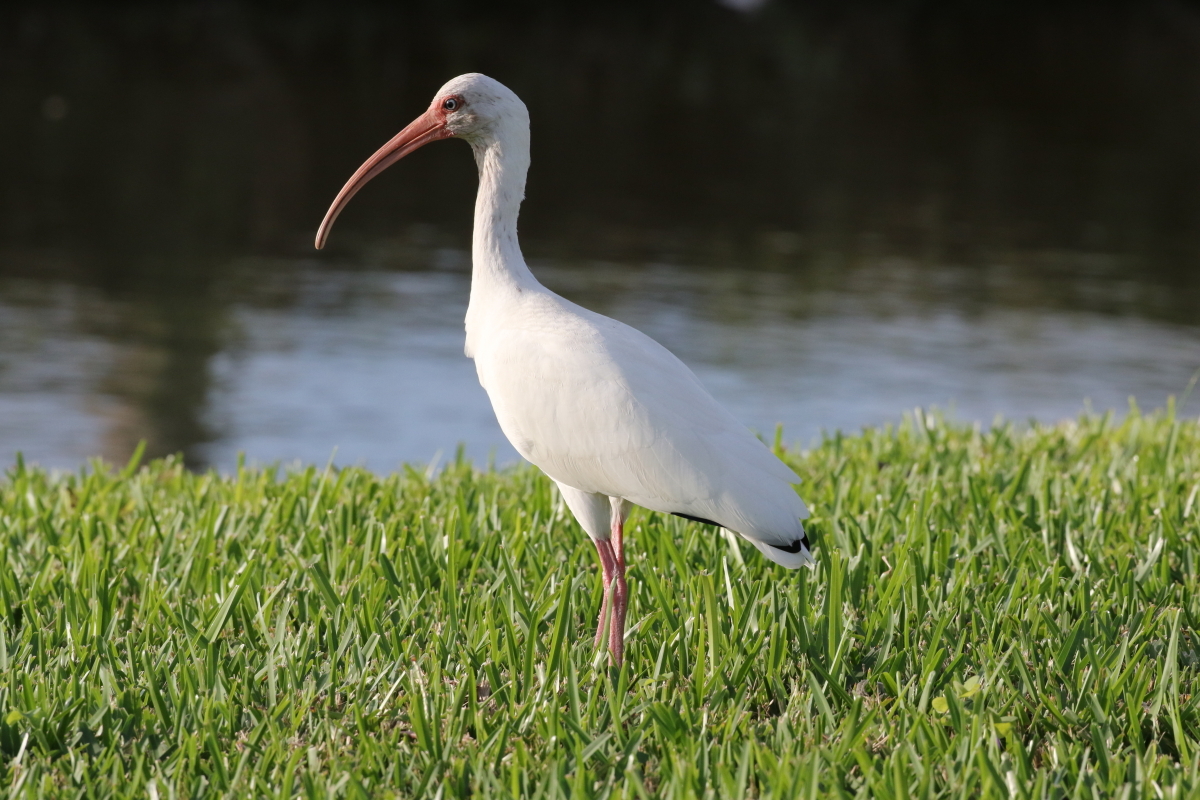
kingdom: Animalia
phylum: Chordata
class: Aves
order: Pelecaniformes
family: Threskiornithidae
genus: Eudocimus
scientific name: Eudocimus albus
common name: White ibis
